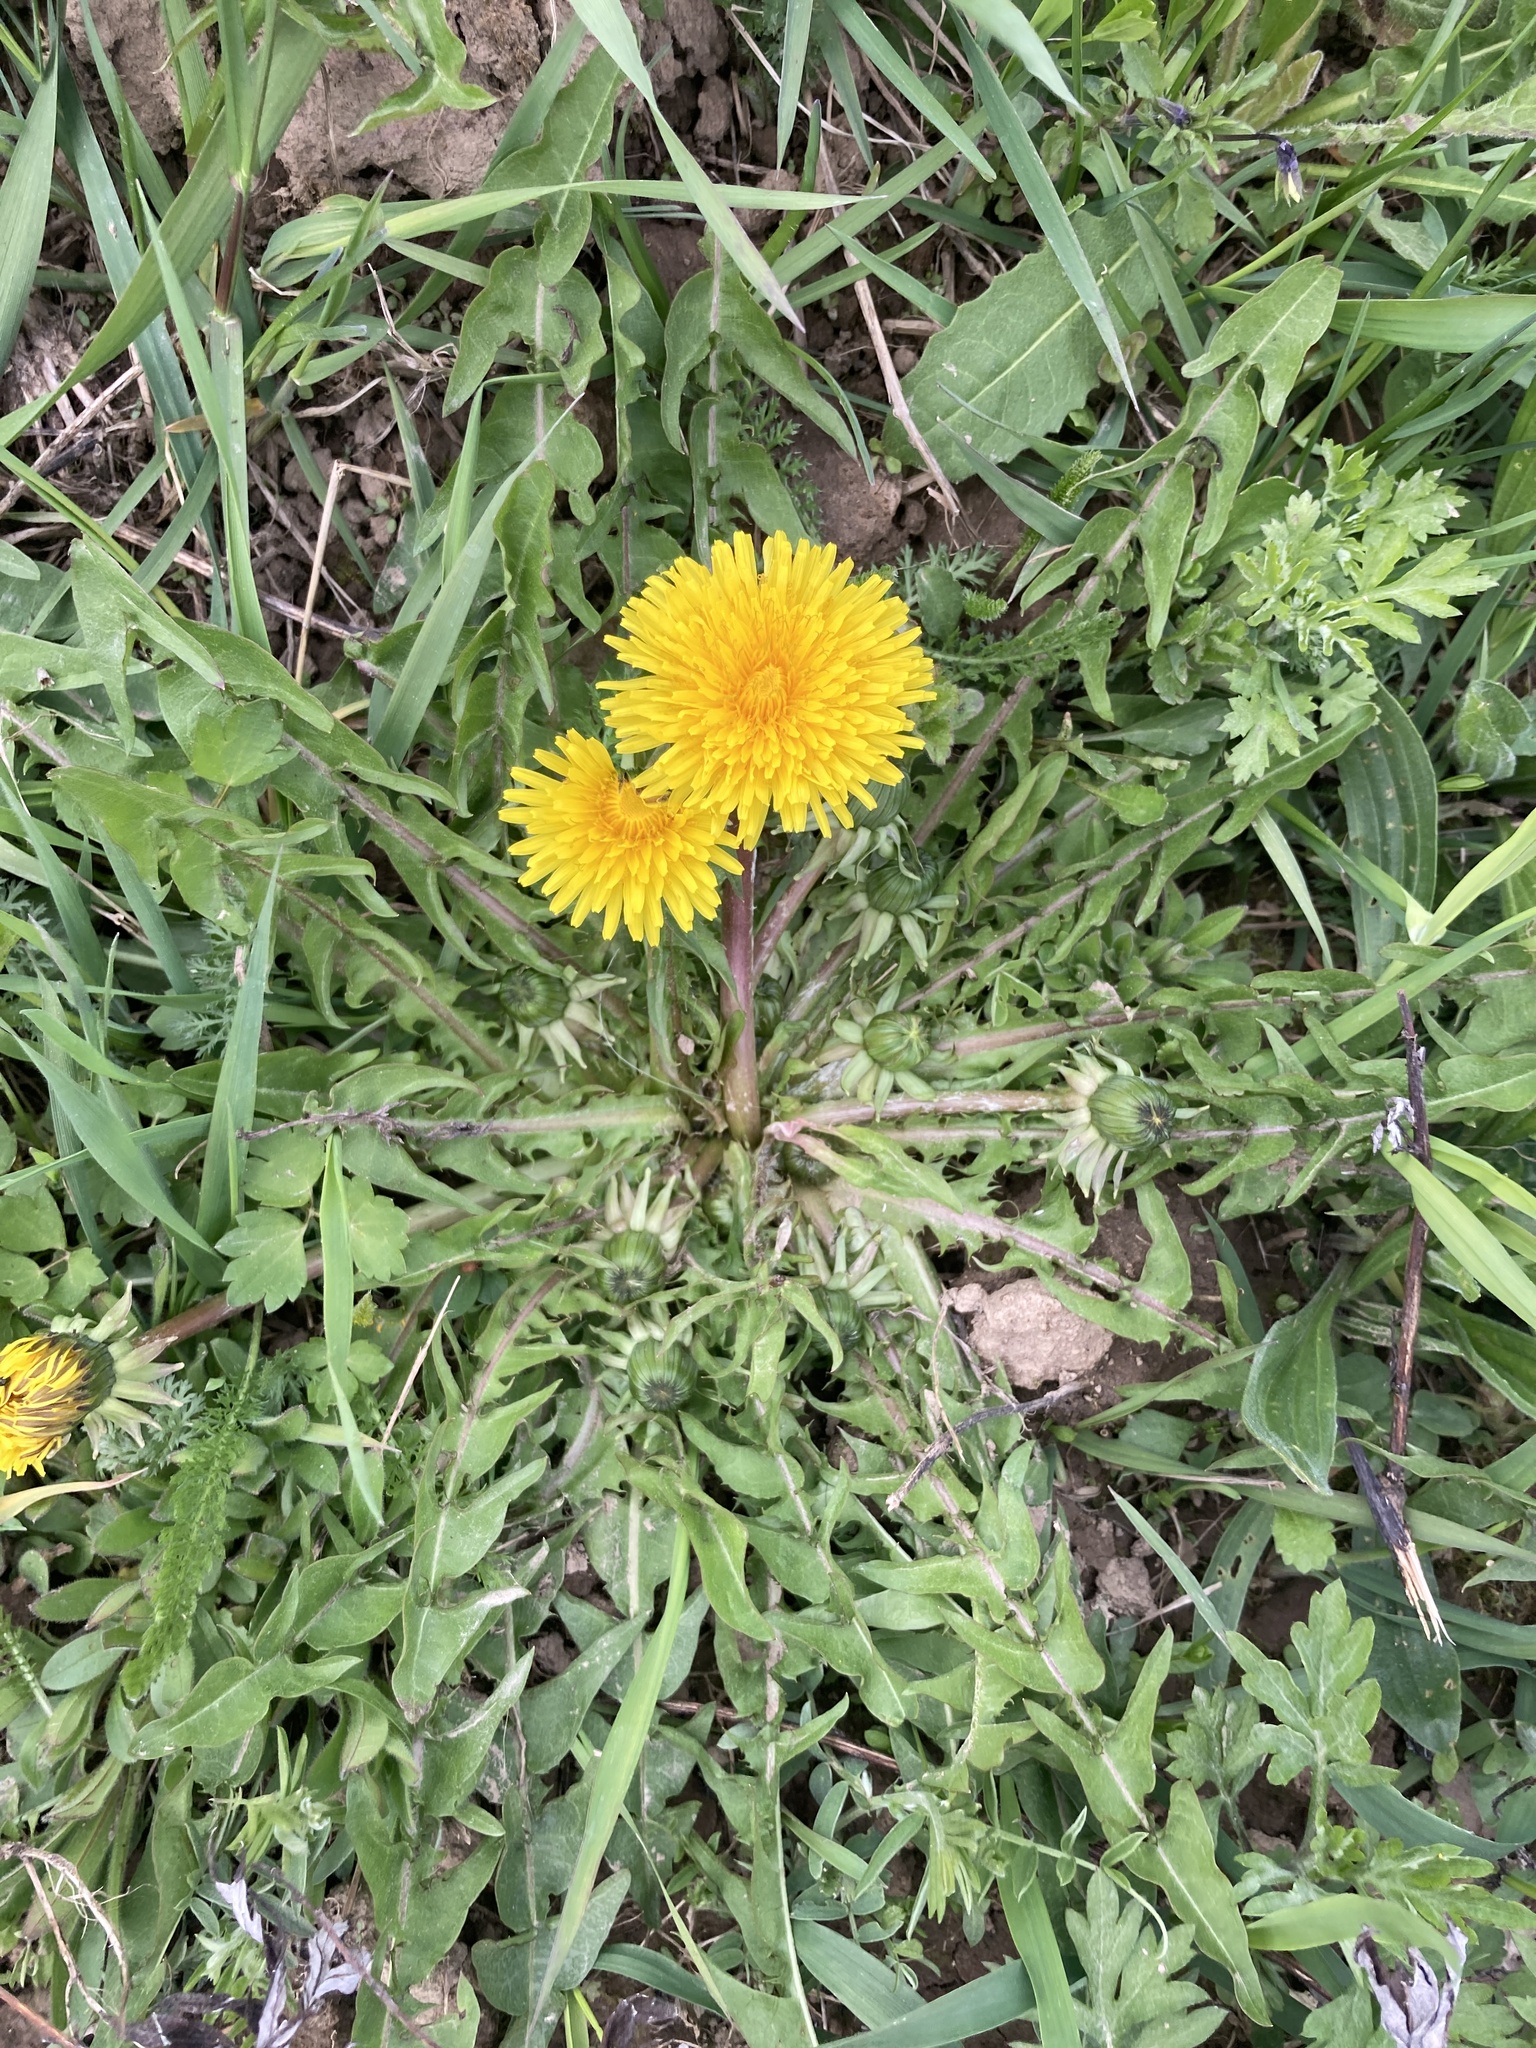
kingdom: Plantae
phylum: Tracheophyta
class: Magnoliopsida
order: Asterales
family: Asteraceae
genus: Taraxacum
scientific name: Taraxacum officinale
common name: Common dandelion
